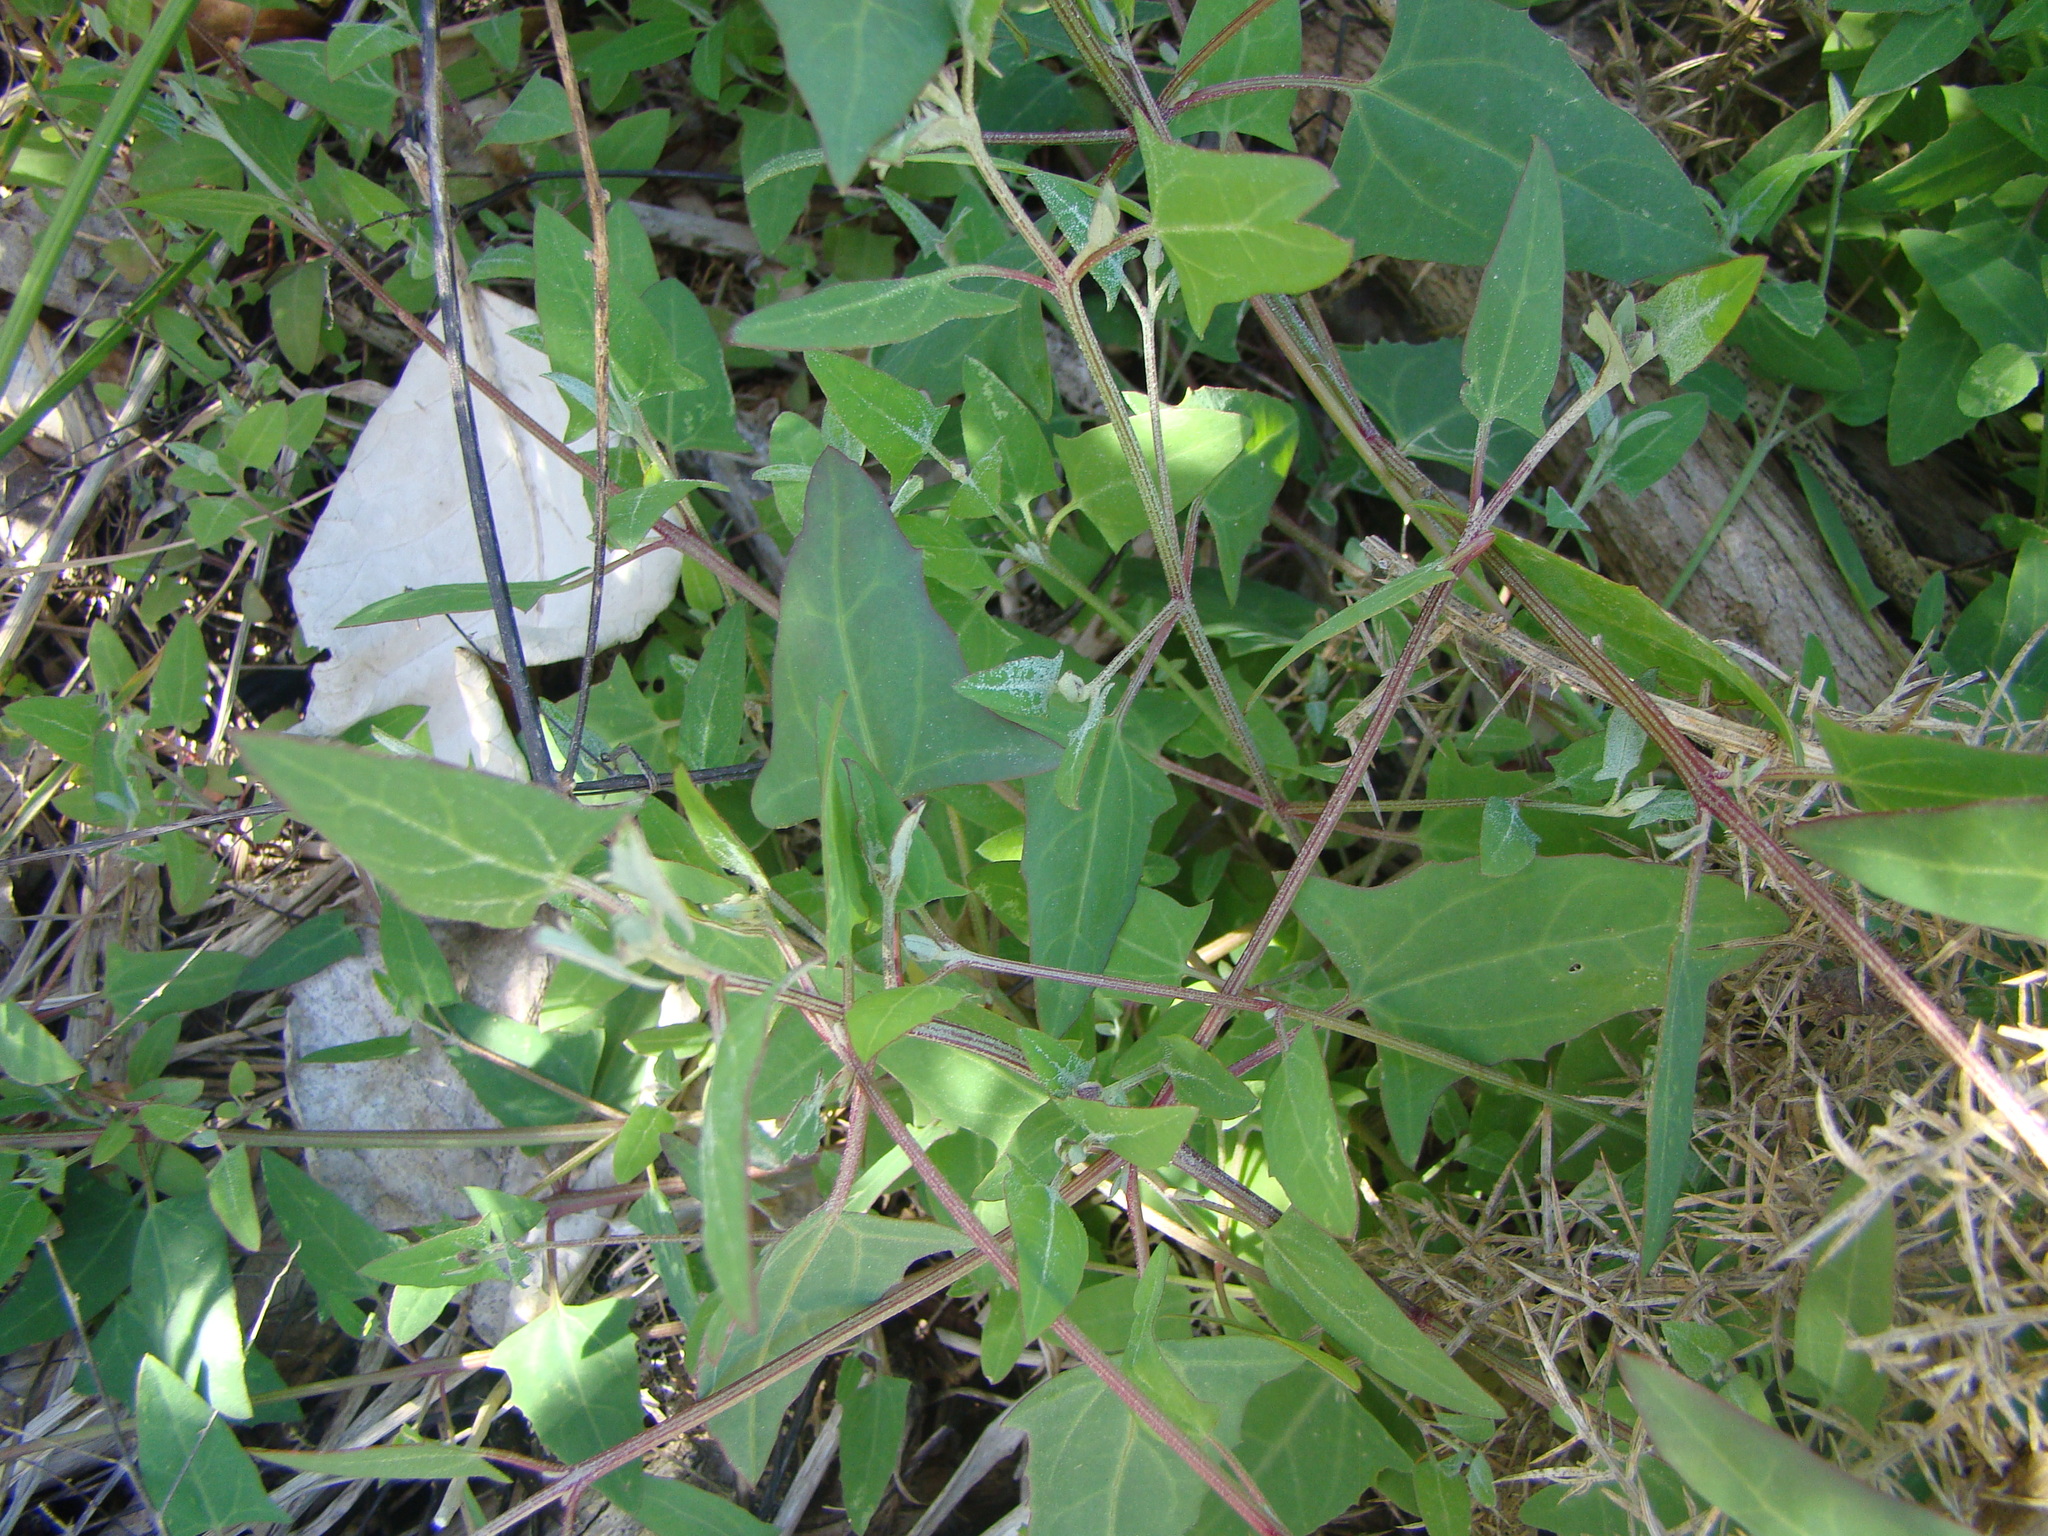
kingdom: Plantae
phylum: Tracheophyta
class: Magnoliopsida
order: Caryophyllales
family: Amaranthaceae
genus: Atriplex
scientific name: Atriplex prostrata
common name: Spear-leaved orache
